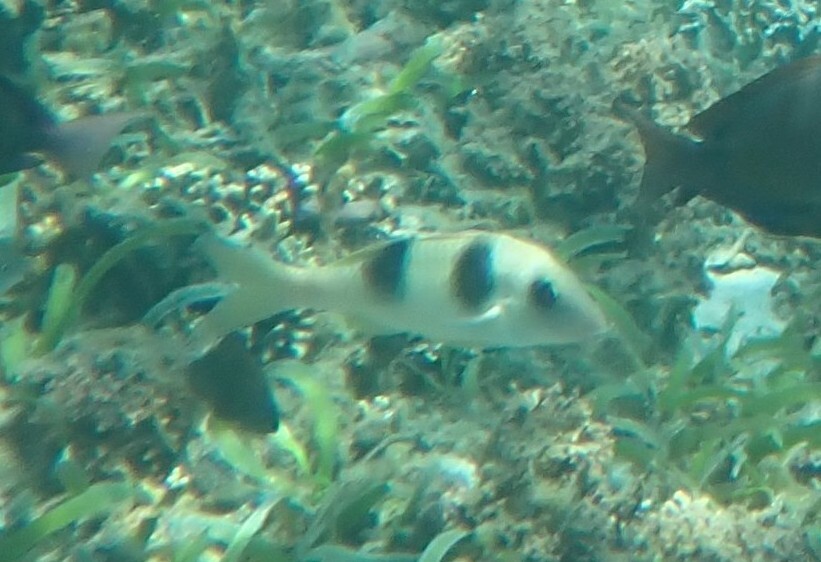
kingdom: Animalia
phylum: Chordata
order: Perciformes
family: Mullidae
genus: Parupeneus
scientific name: Parupeneus crassilabris
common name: Doublebar goatfish
